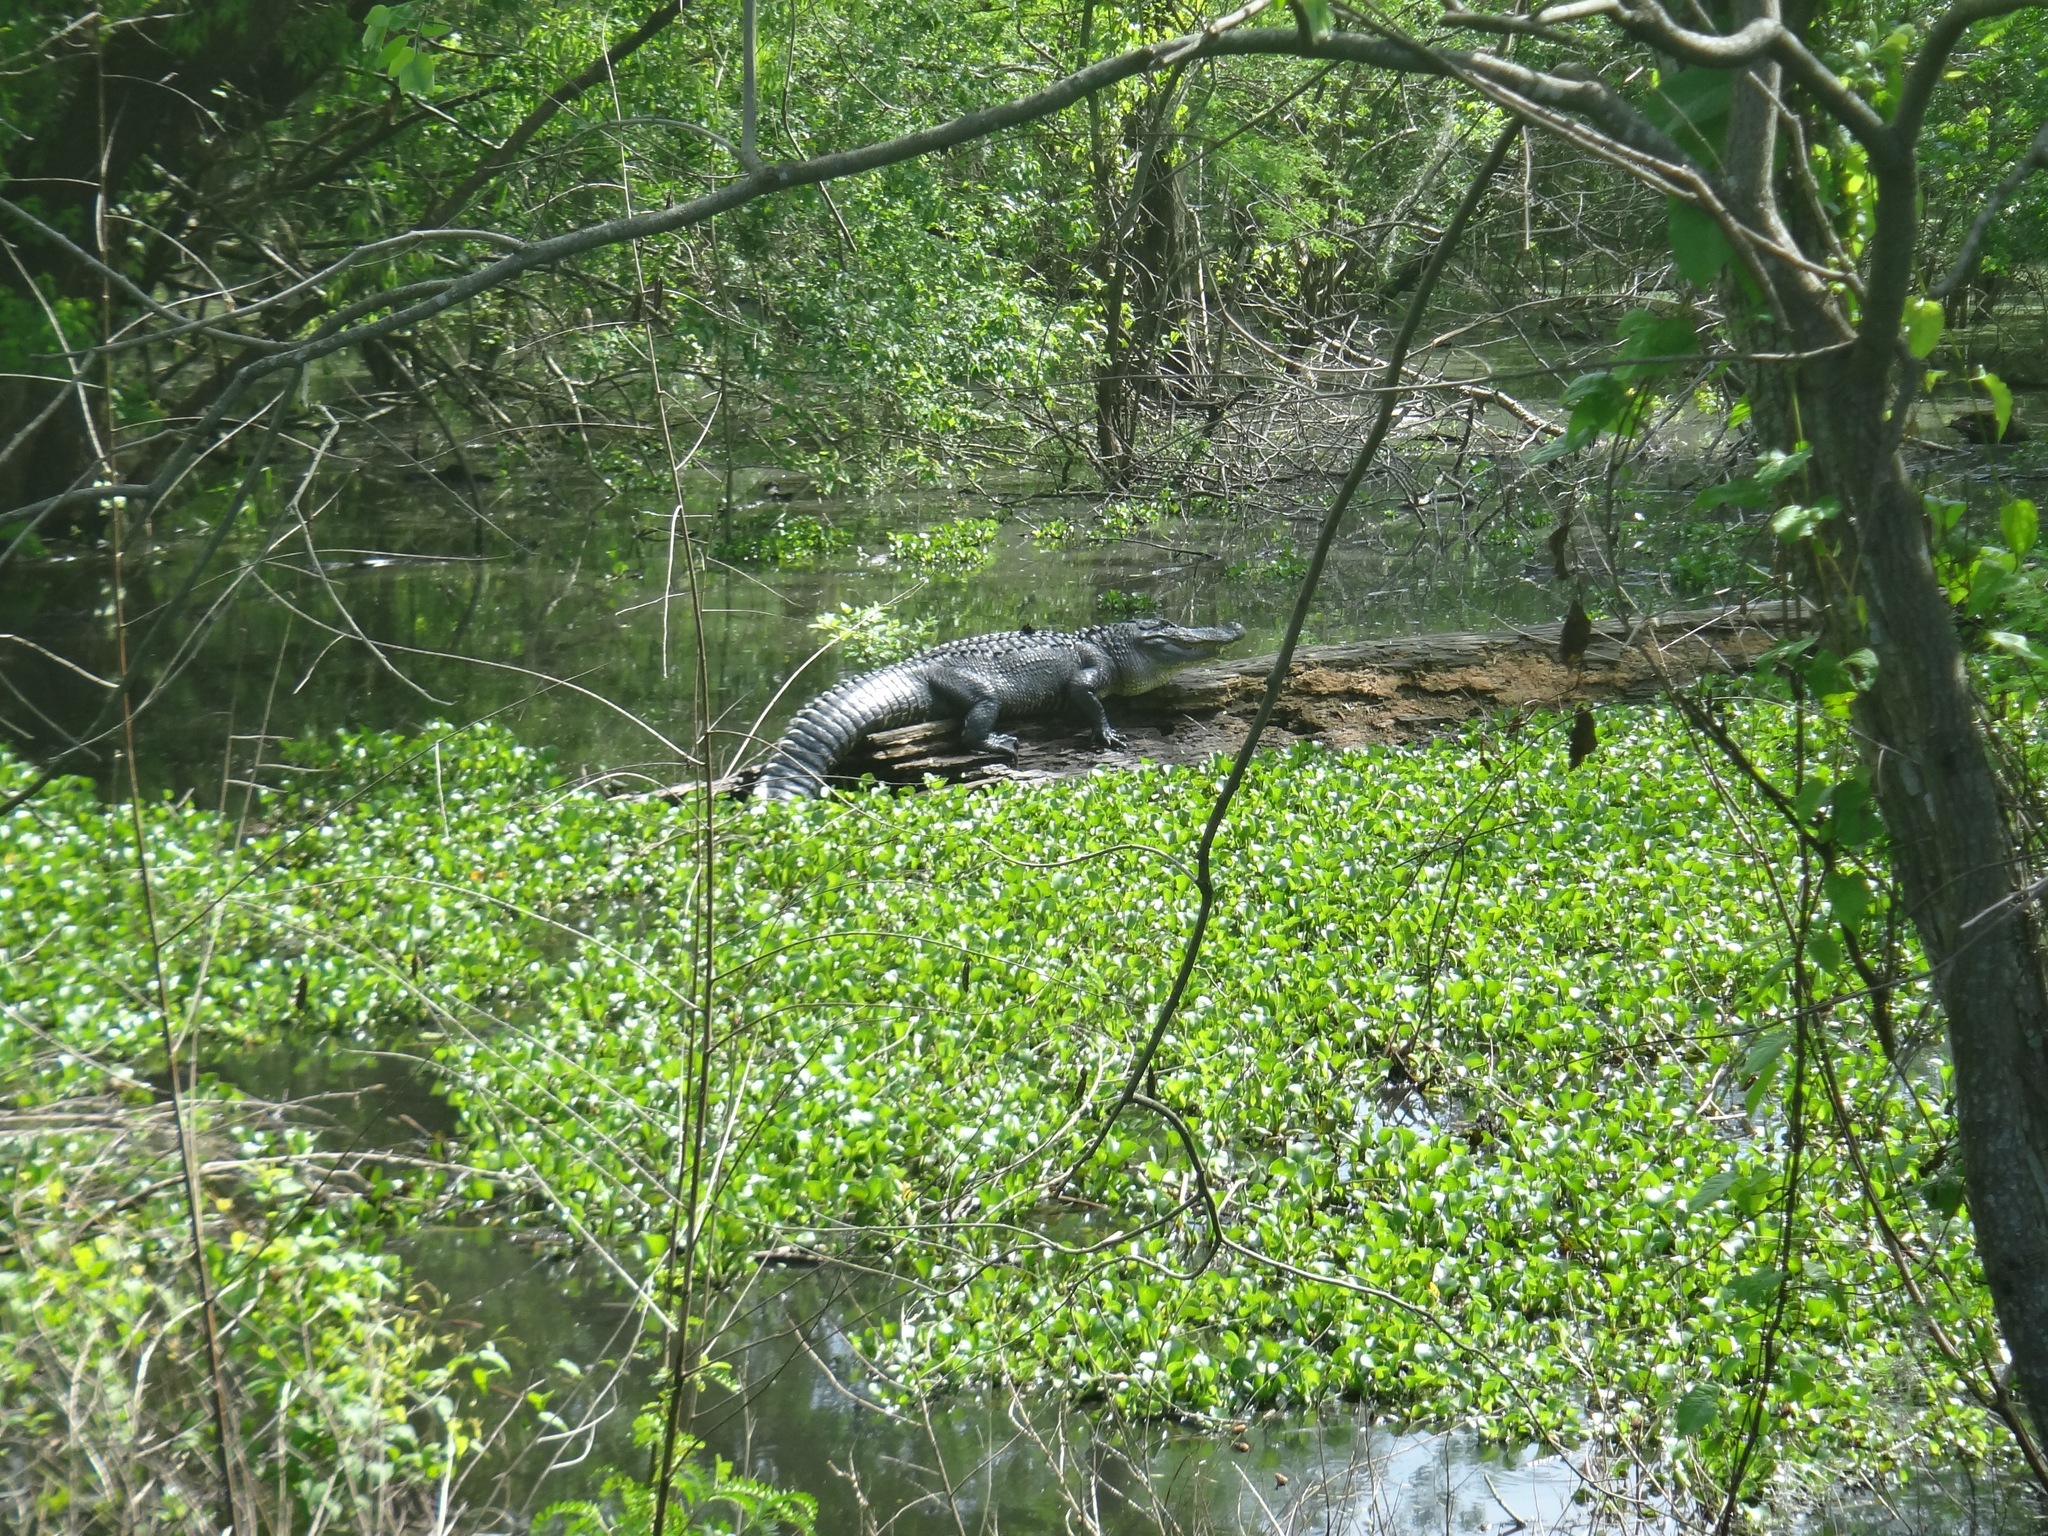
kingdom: Animalia
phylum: Chordata
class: Crocodylia
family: Alligatoridae
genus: Alligator
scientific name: Alligator mississippiensis
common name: American alligator
